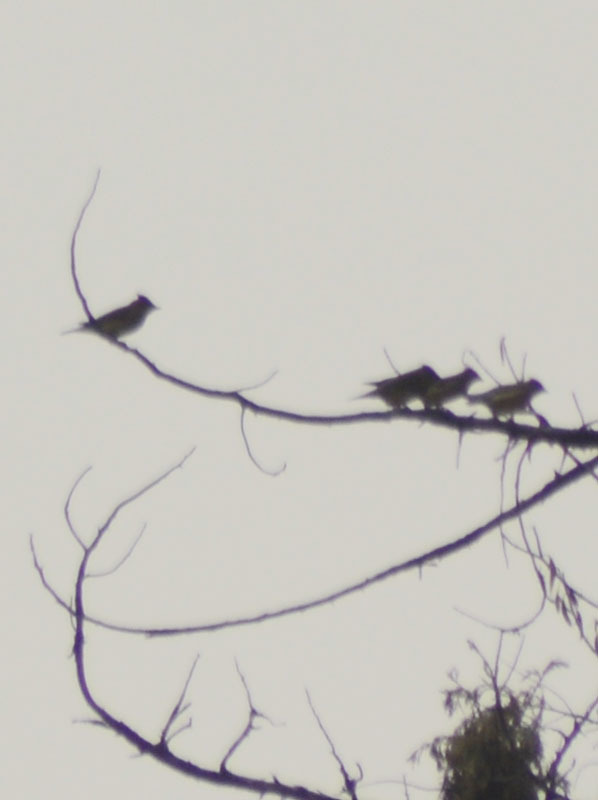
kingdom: Animalia
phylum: Chordata
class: Aves
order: Passeriformes
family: Bombycillidae
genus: Bombycilla
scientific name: Bombycilla cedrorum
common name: Cedar waxwing
